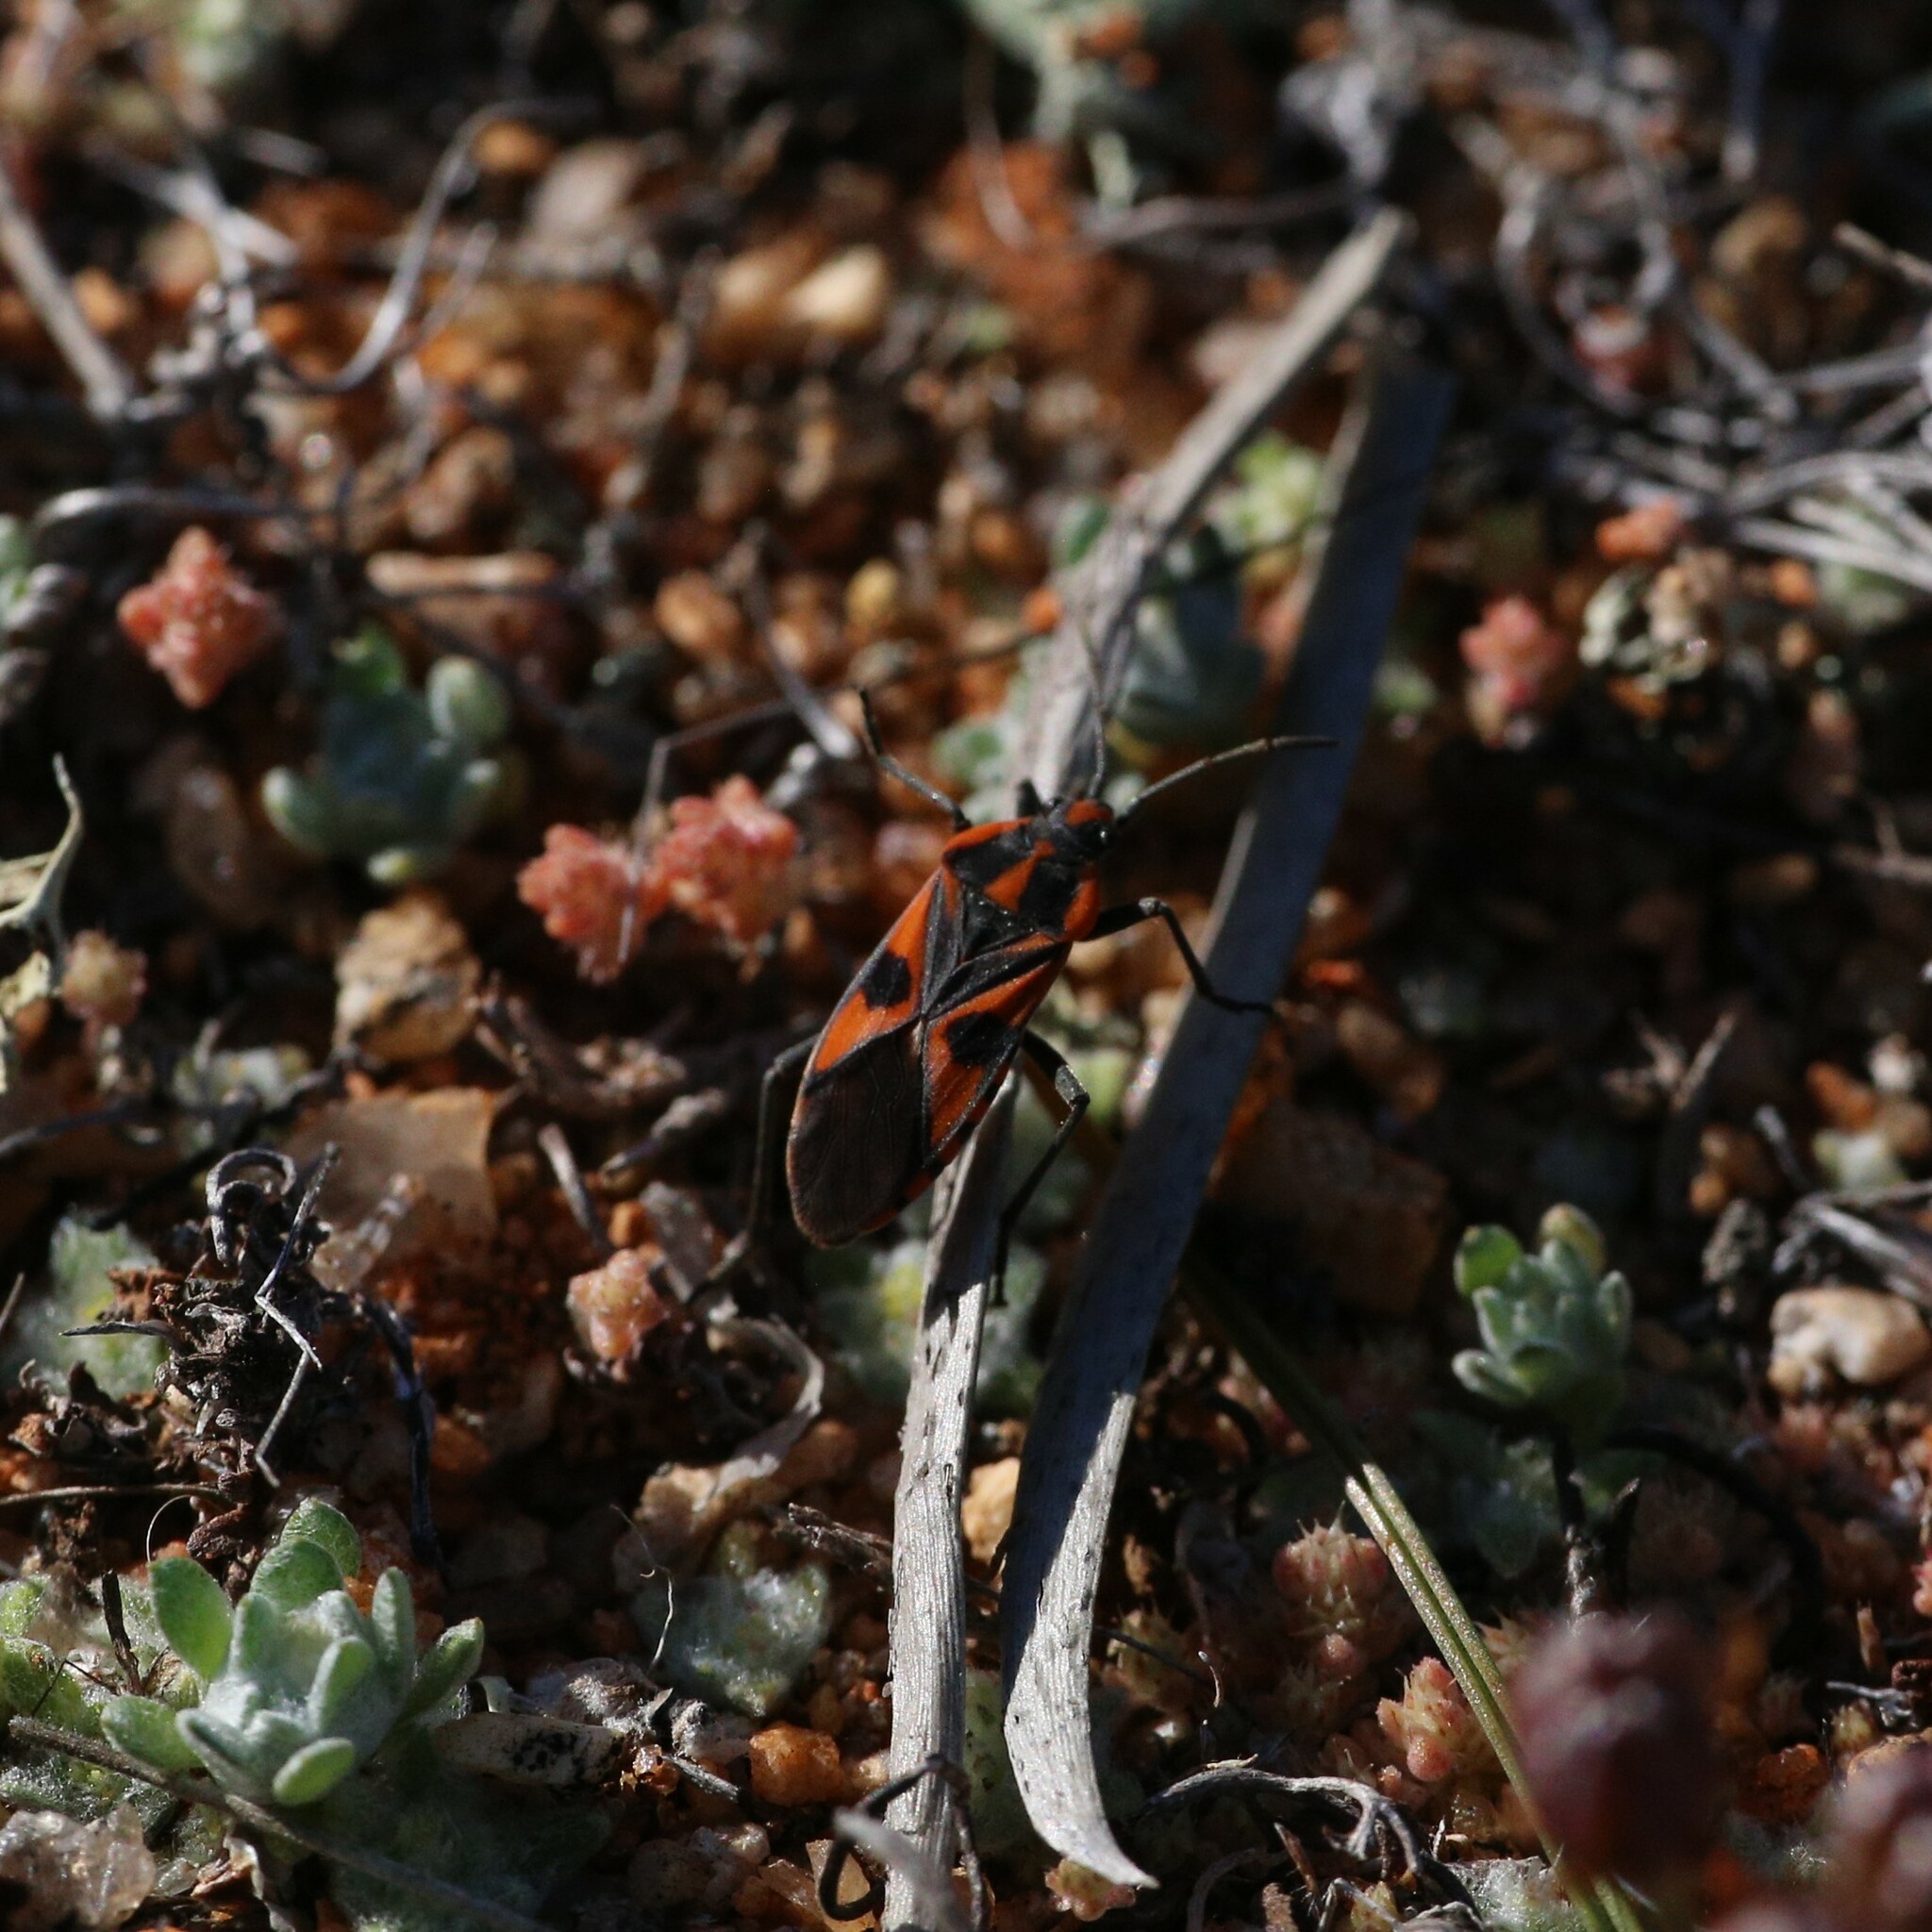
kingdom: Animalia
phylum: Arthropoda
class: Insecta
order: Hemiptera
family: Lygaeidae
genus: Spilostethus
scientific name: Spilostethus pacificus
